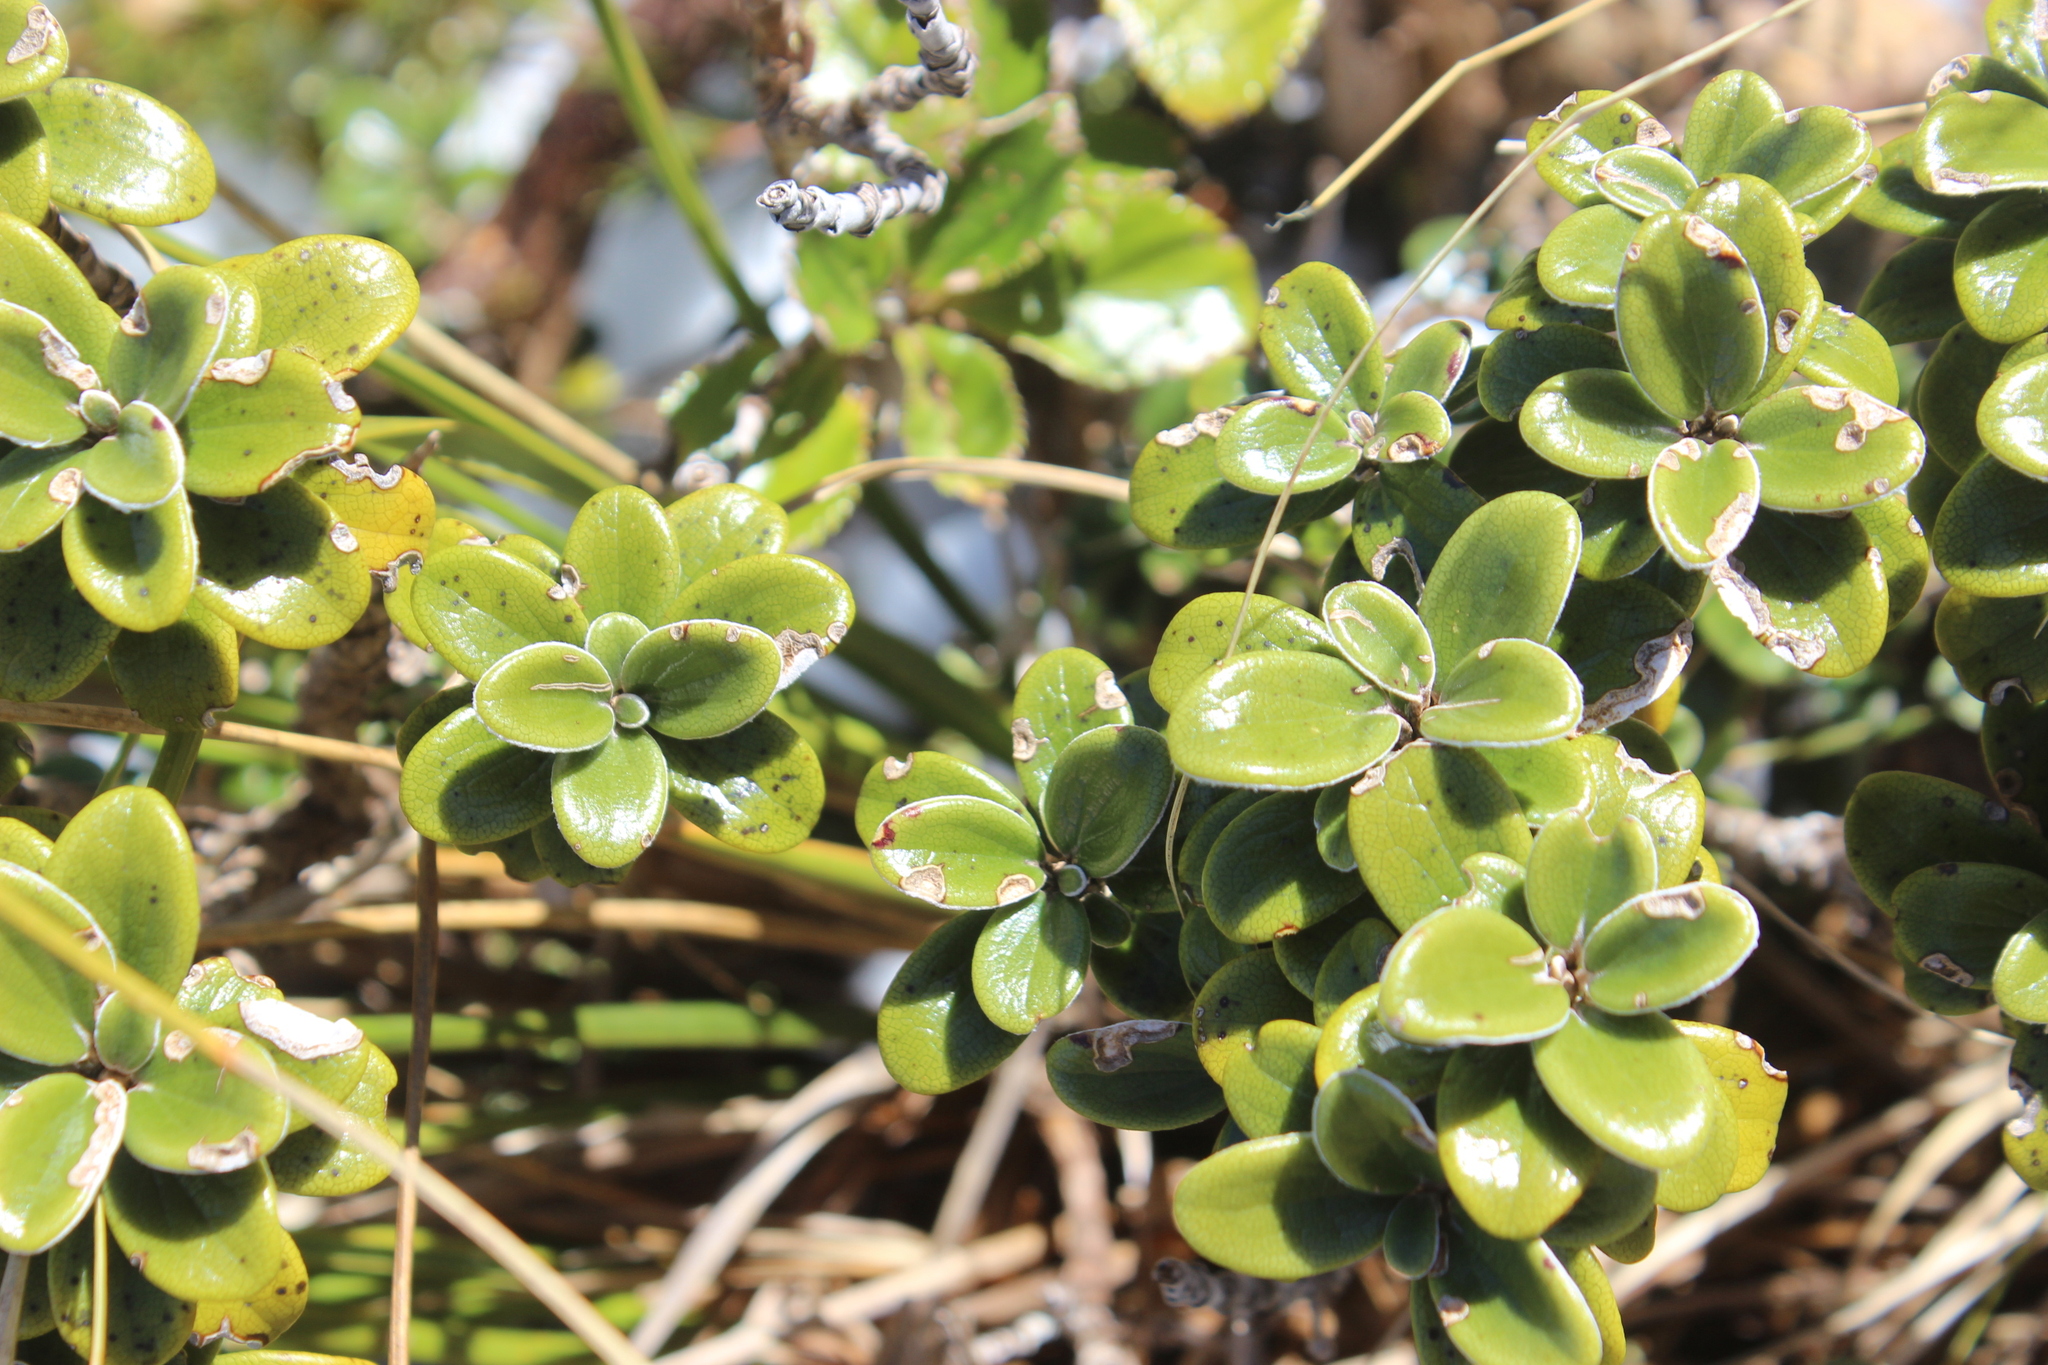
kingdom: Plantae
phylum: Tracheophyta
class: Magnoliopsida
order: Asterales
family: Asteraceae
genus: Brachyglottis
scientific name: Brachyglottis bidwillii
